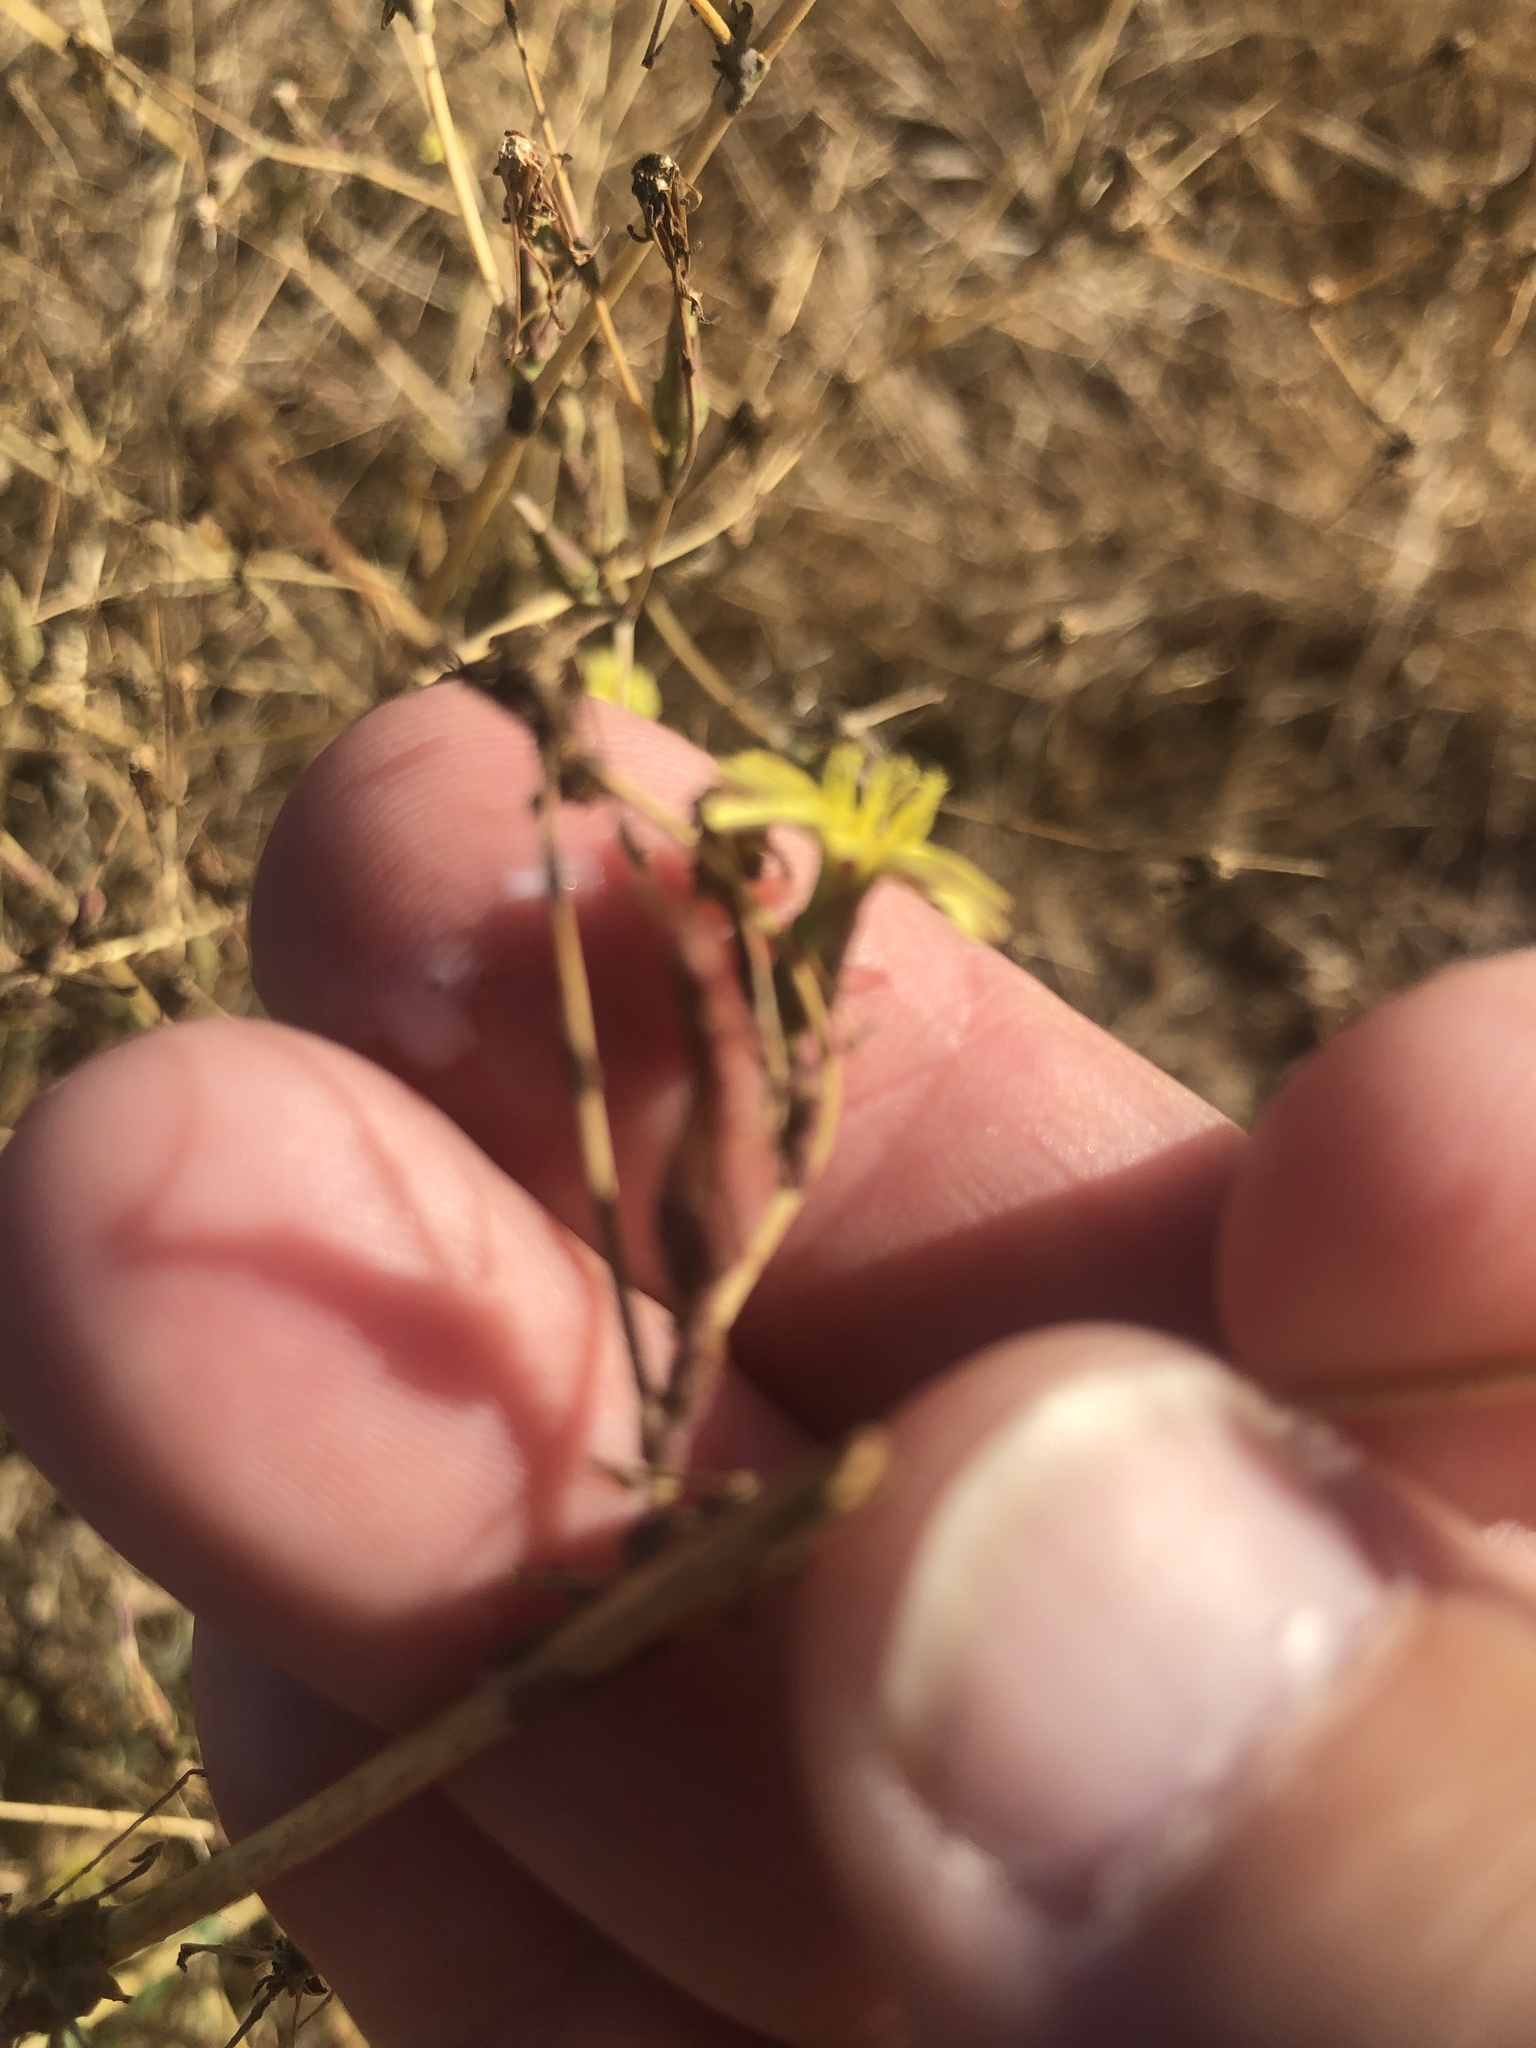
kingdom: Plantae
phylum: Tracheophyta
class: Magnoliopsida
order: Asterales
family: Asteraceae
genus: Lactuca
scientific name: Lactuca serriola
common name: Prickly lettuce
